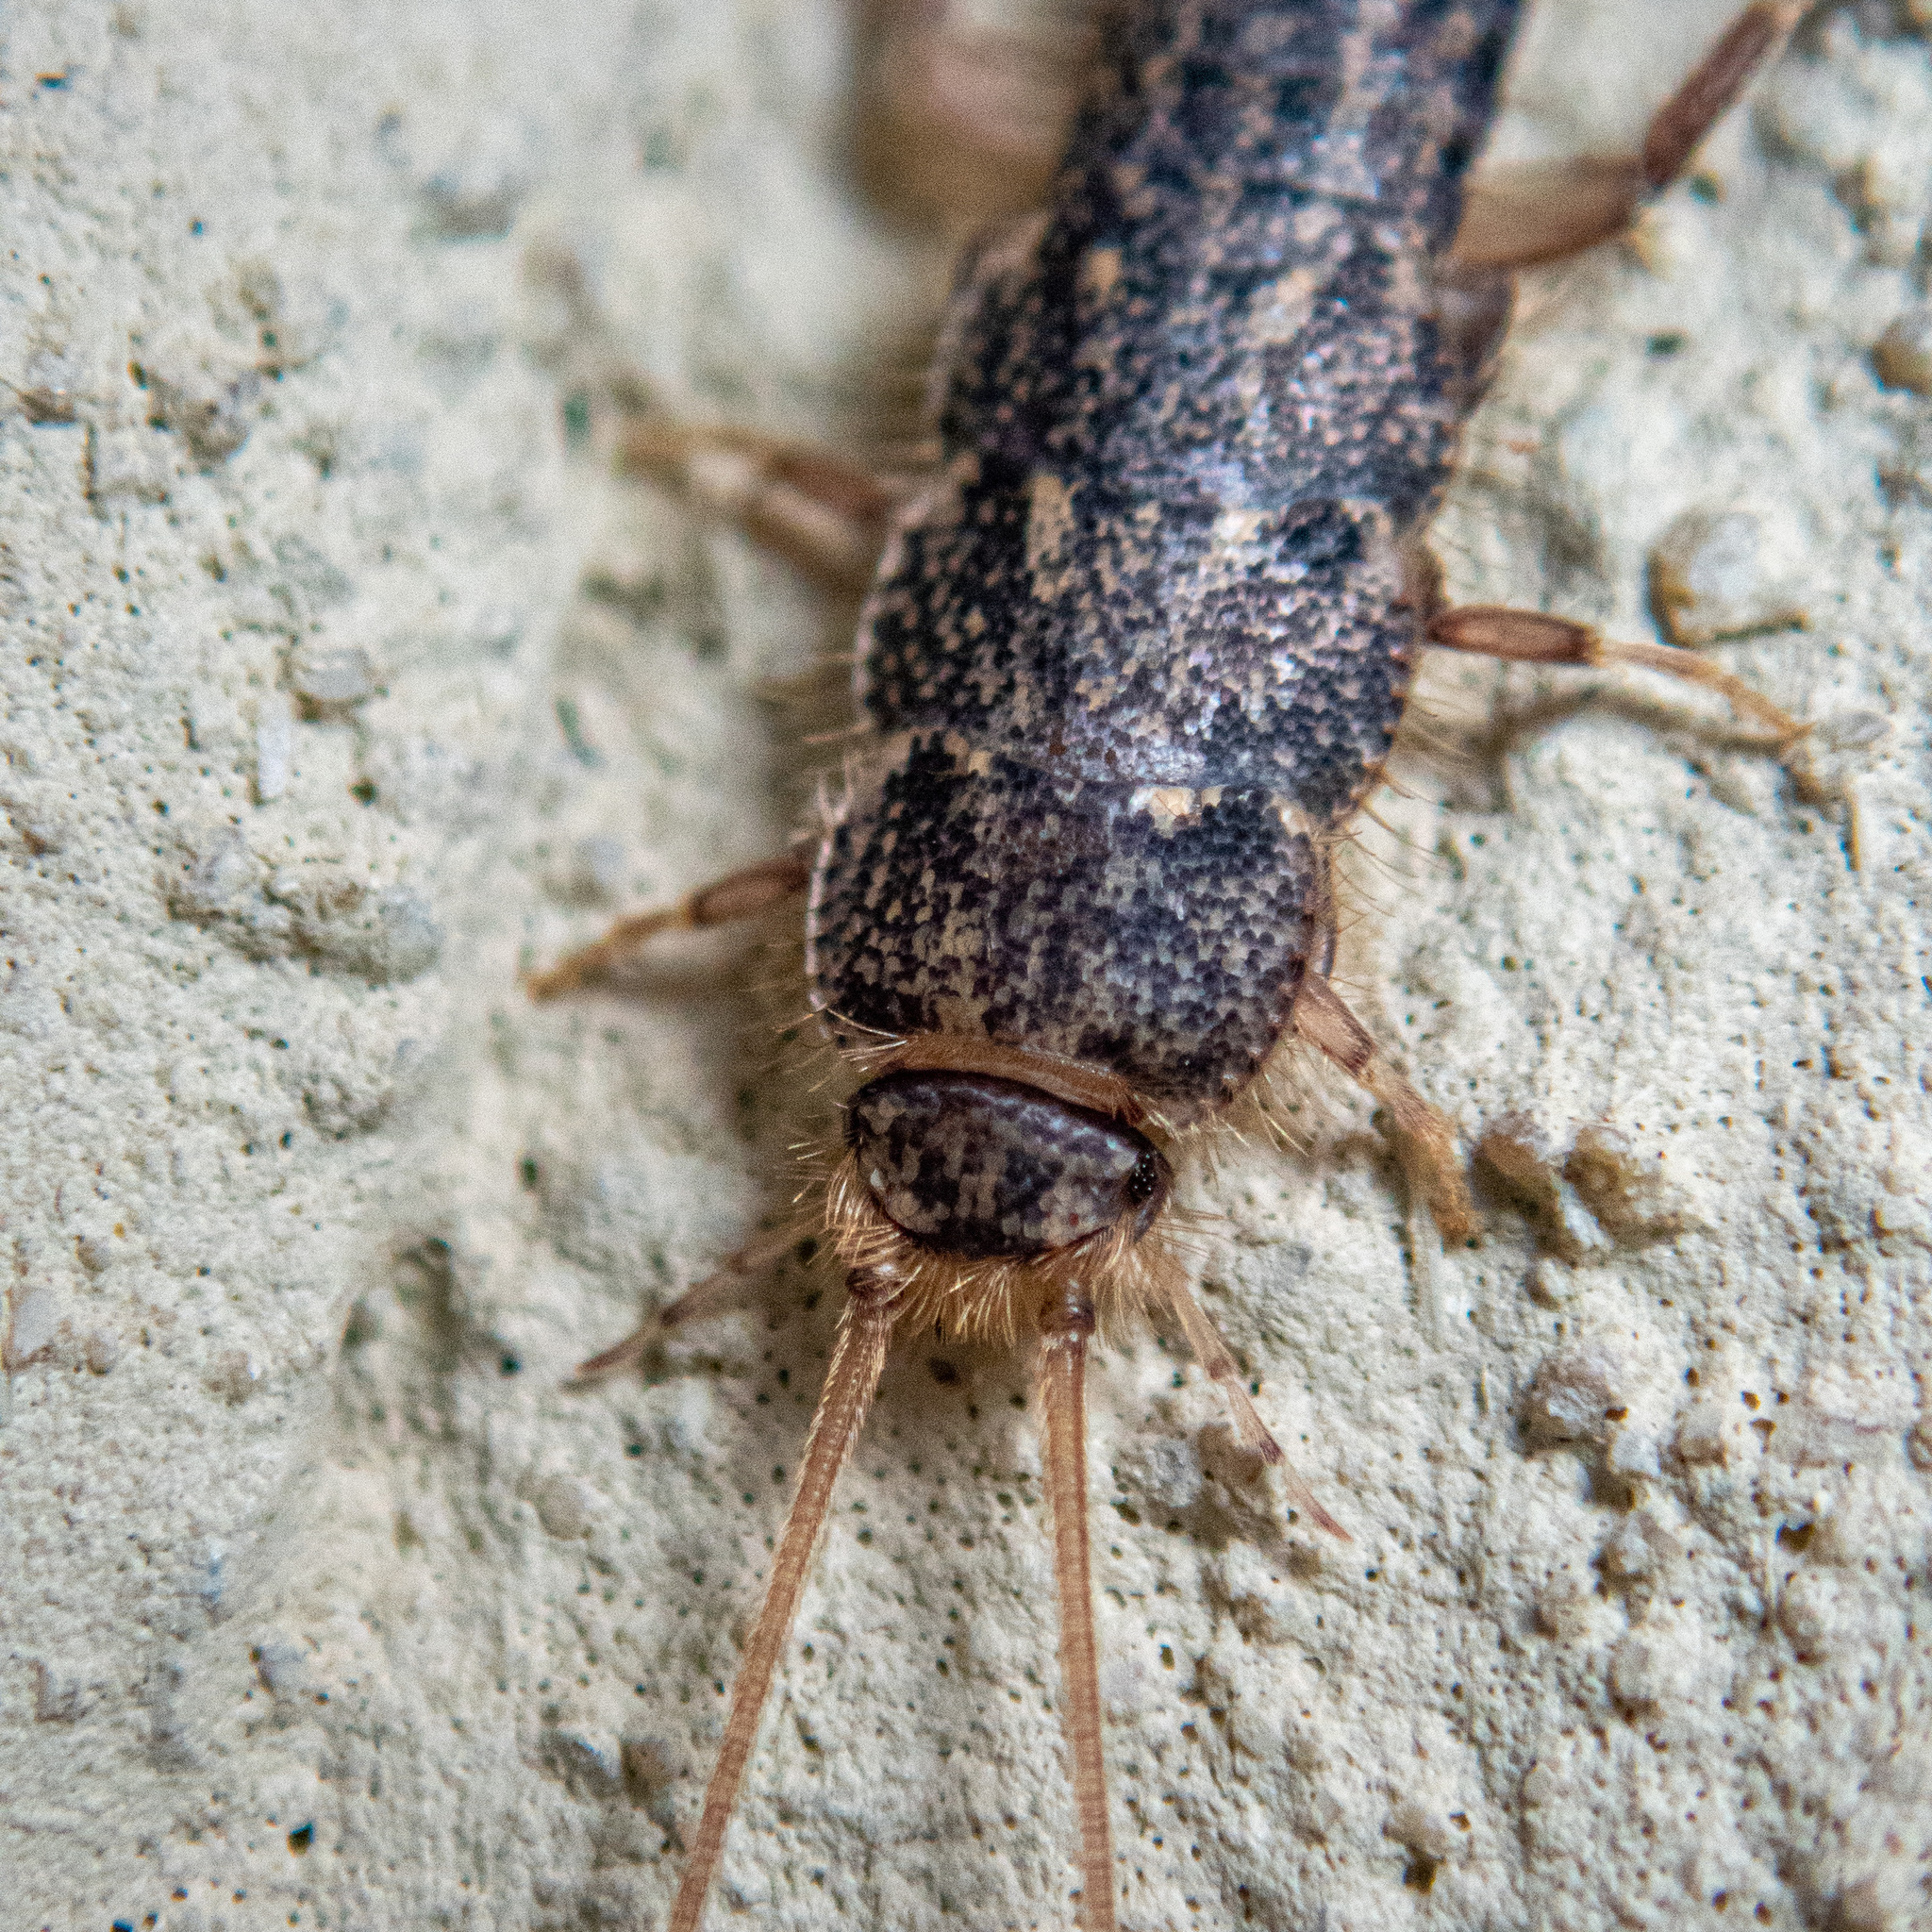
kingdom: Animalia
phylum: Arthropoda
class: Insecta
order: Zygentoma
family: Lepismatidae
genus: Ctenolepisma
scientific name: Ctenolepisma lineata
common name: Four-lined silverfish
